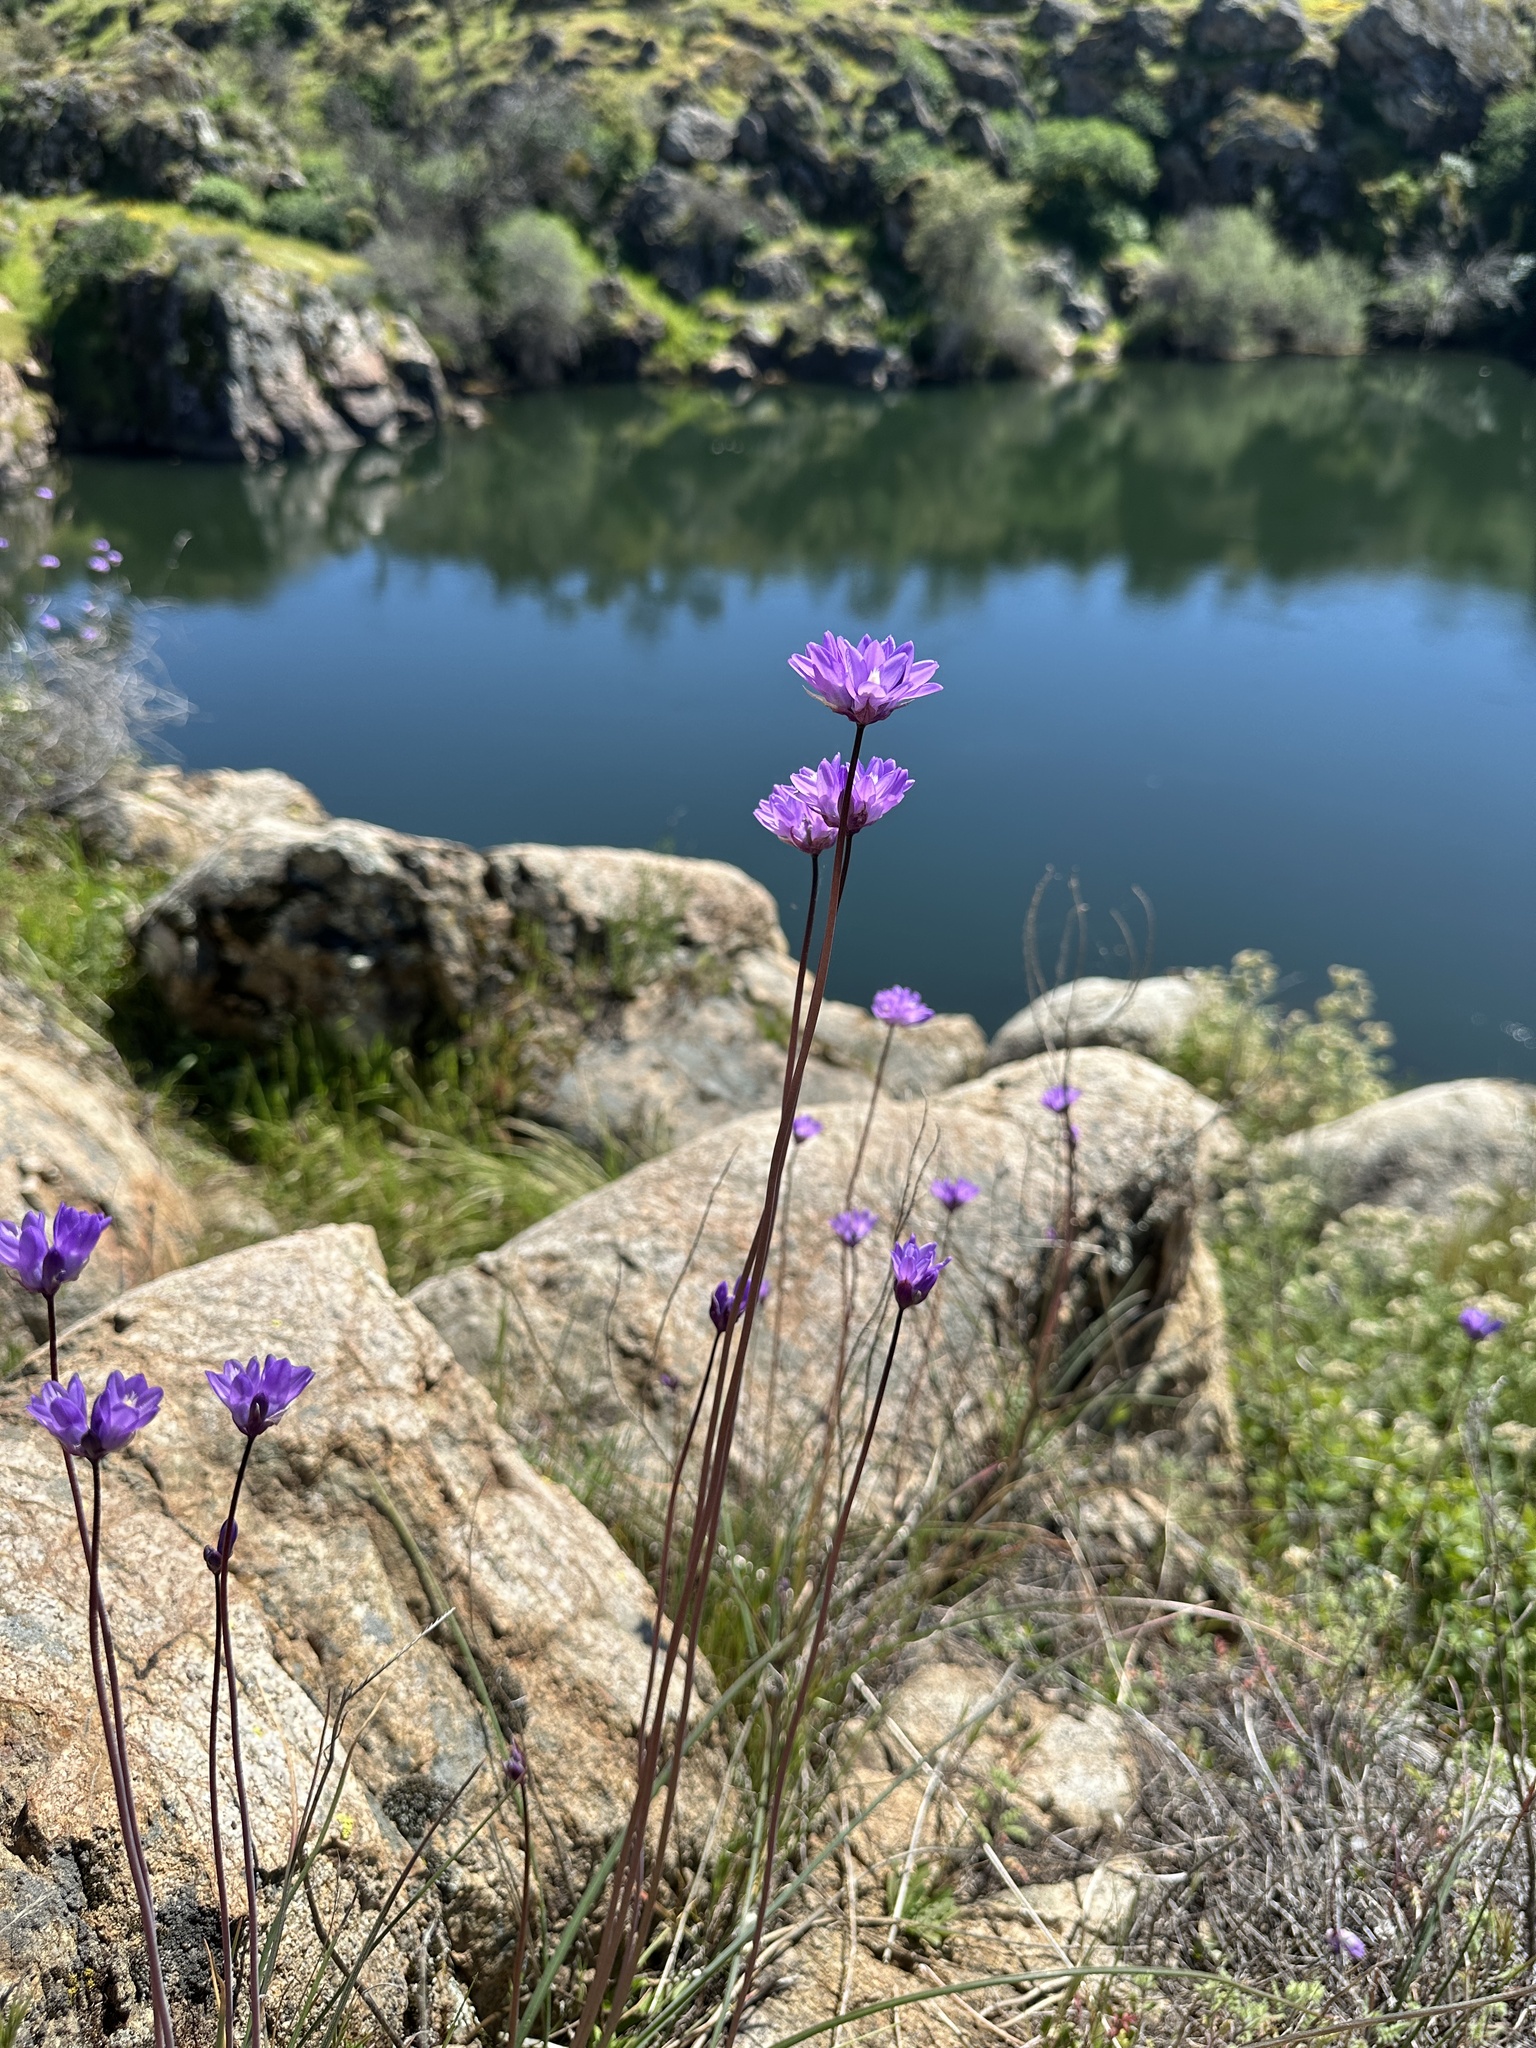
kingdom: Plantae
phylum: Tracheophyta
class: Liliopsida
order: Asparagales
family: Asparagaceae
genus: Dipterostemon
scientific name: Dipterostemon capitatus
